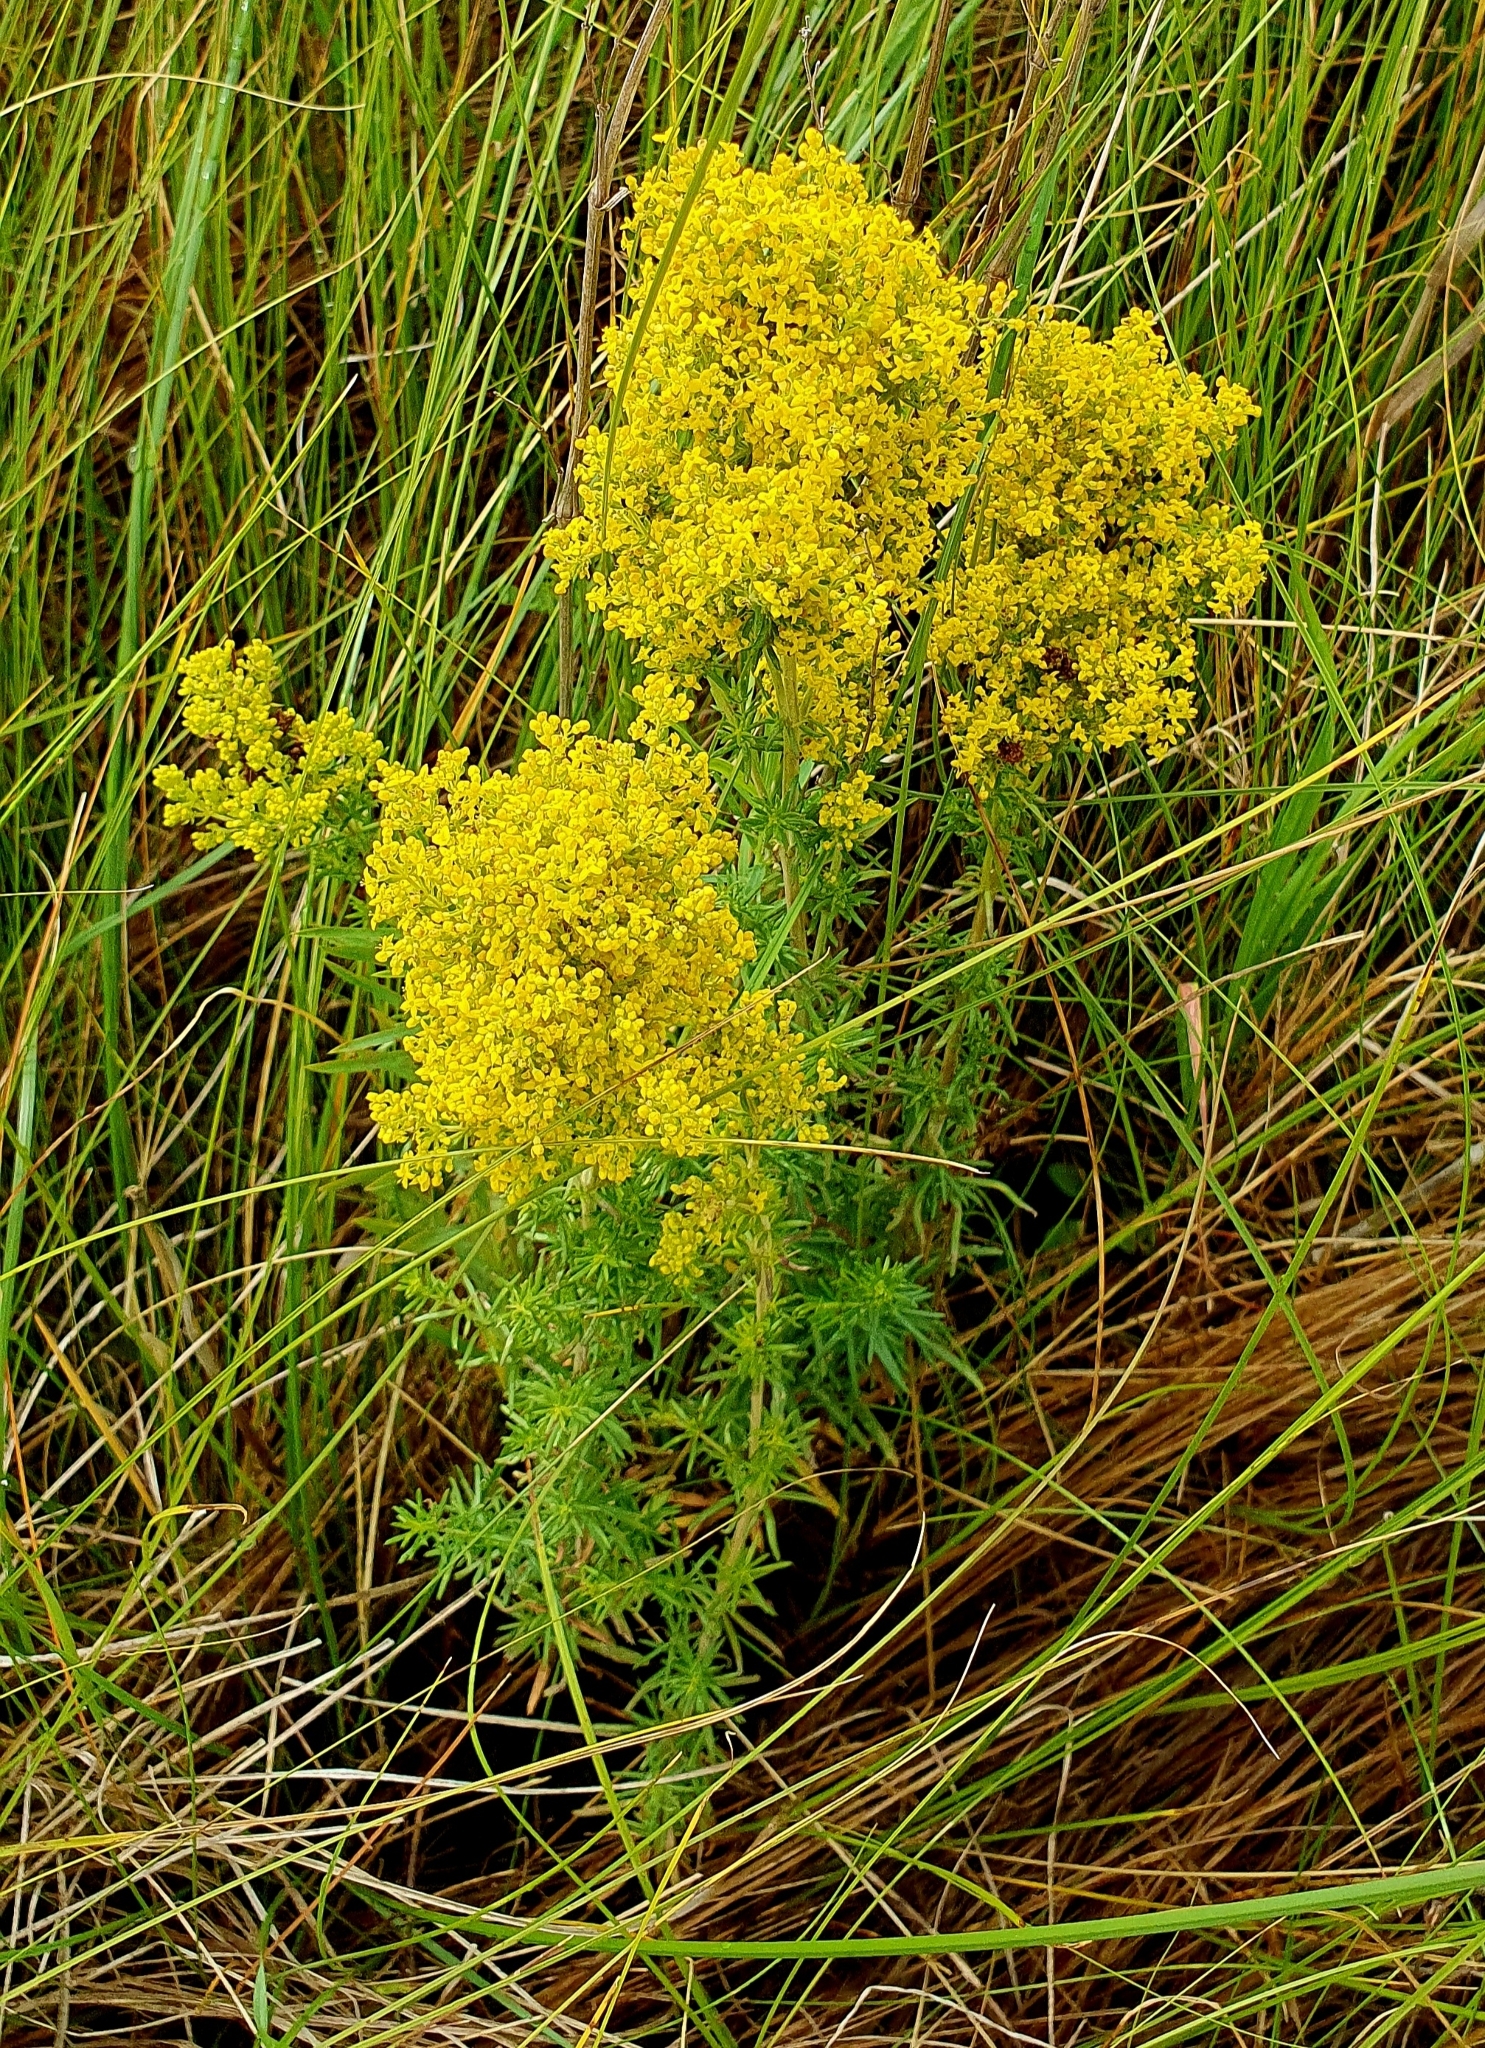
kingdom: Plantae
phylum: Tracheophyta
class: Magnoliopsida
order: Gentianales
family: Rubiaceae
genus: Galium
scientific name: Galium verum
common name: Lady's bedstraw
